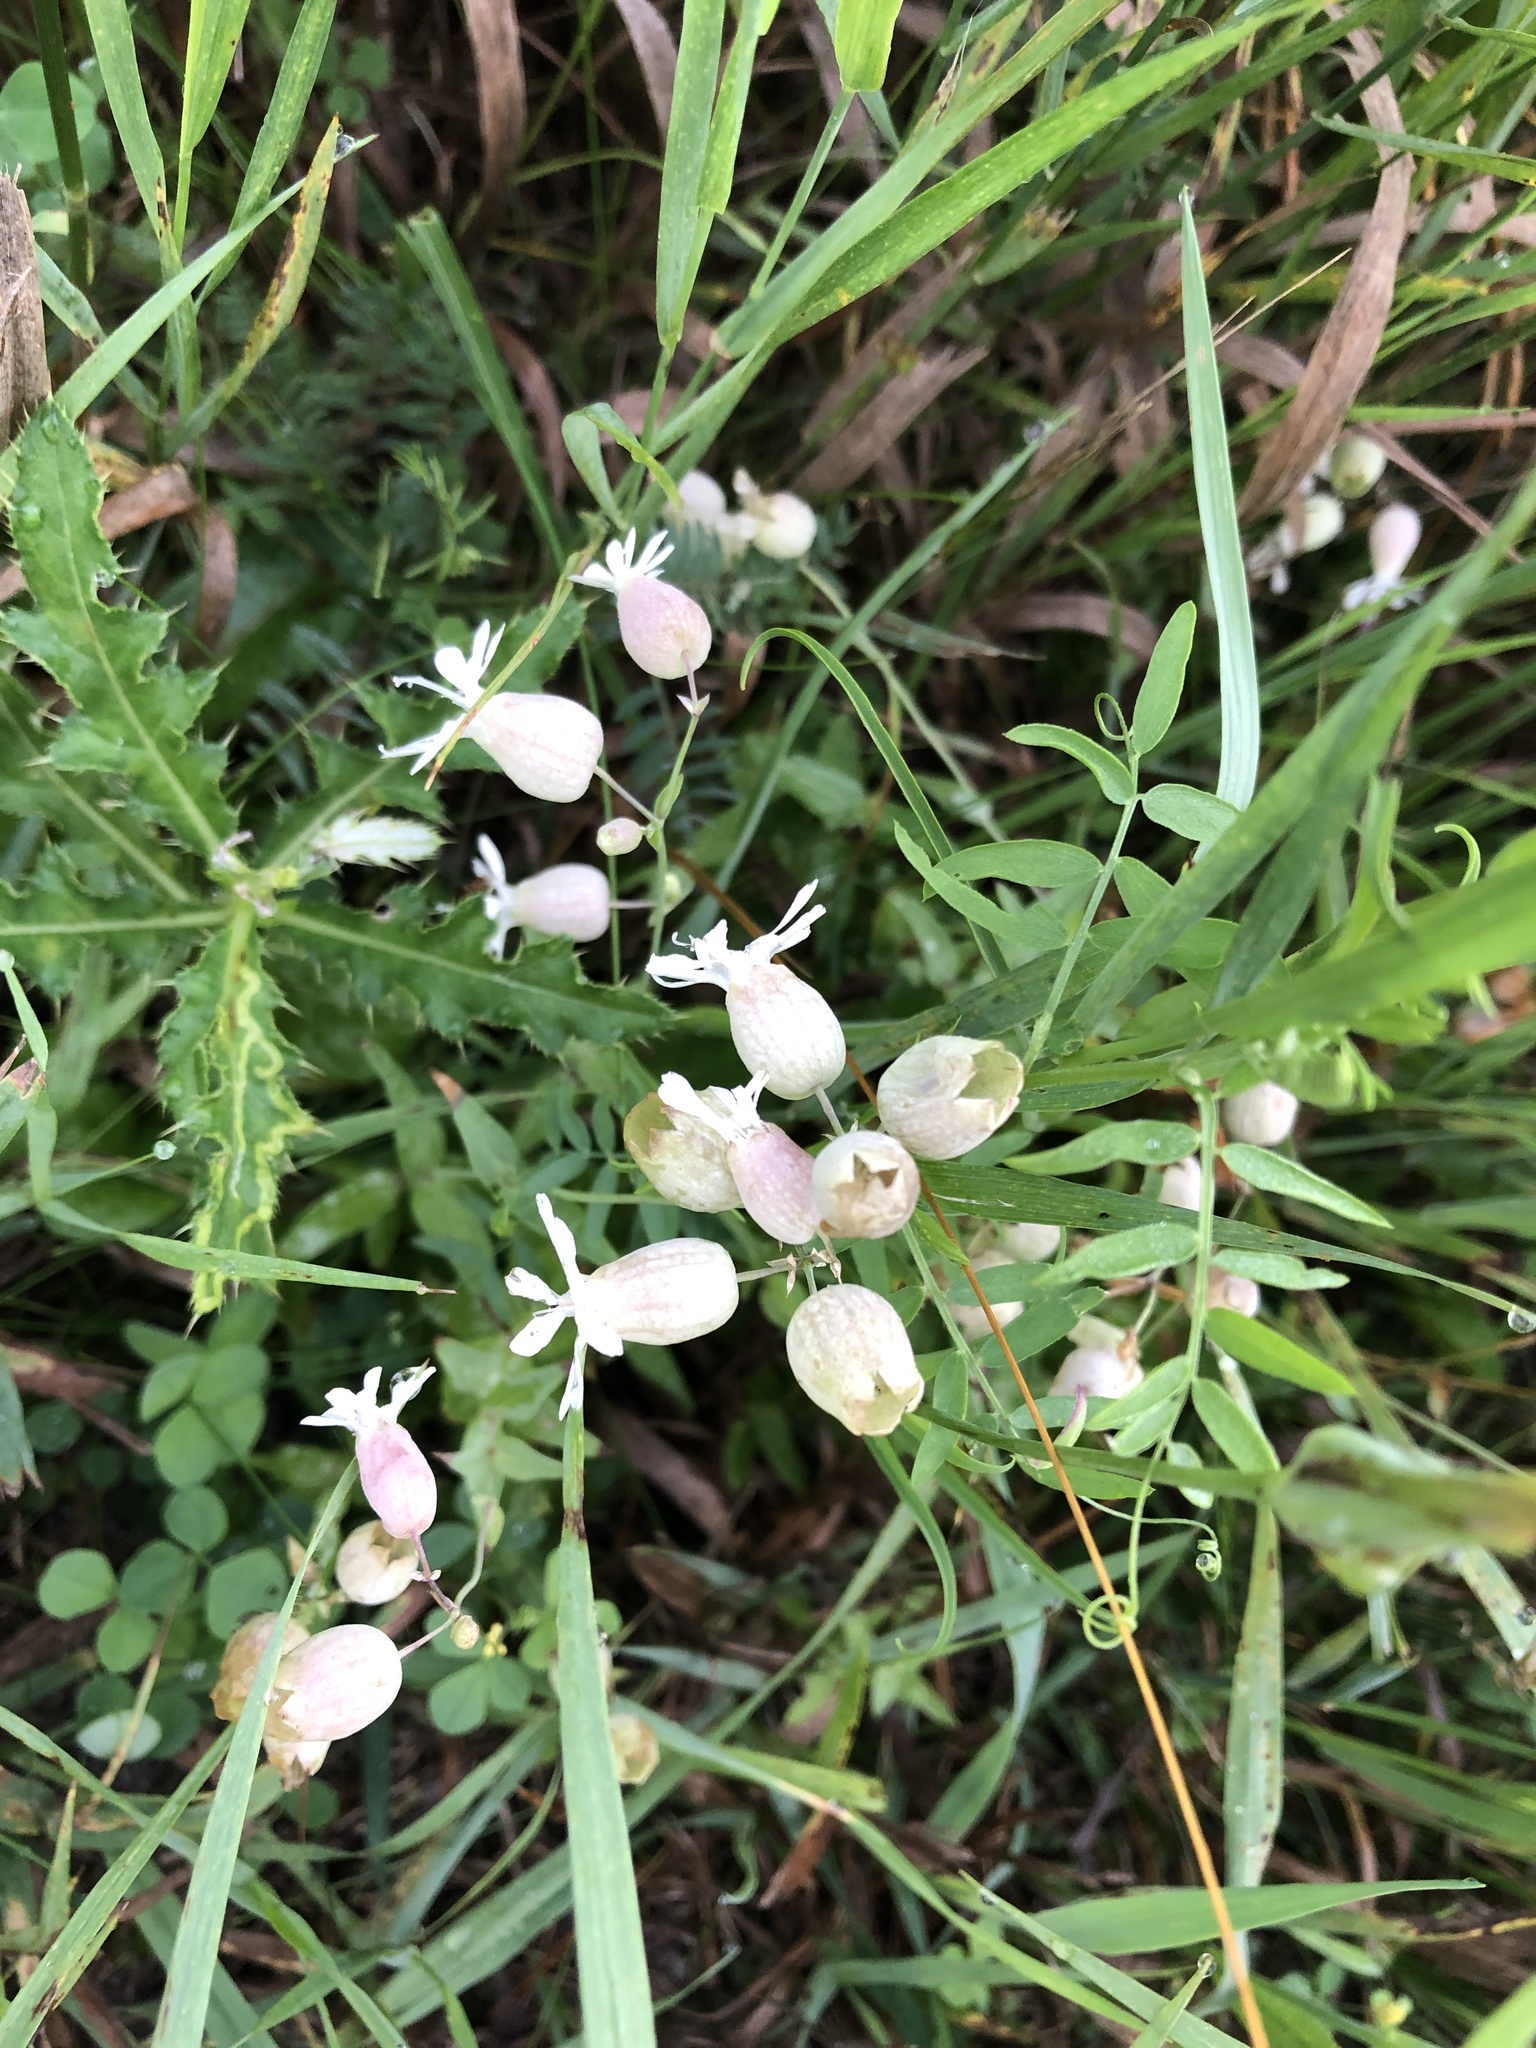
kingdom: Plantae
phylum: Tracheophyta
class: Magnoliopsida
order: Caryophyllales
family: Caryophyllaceae
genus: Silene
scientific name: Silene vulgaris
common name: Bladder campion
